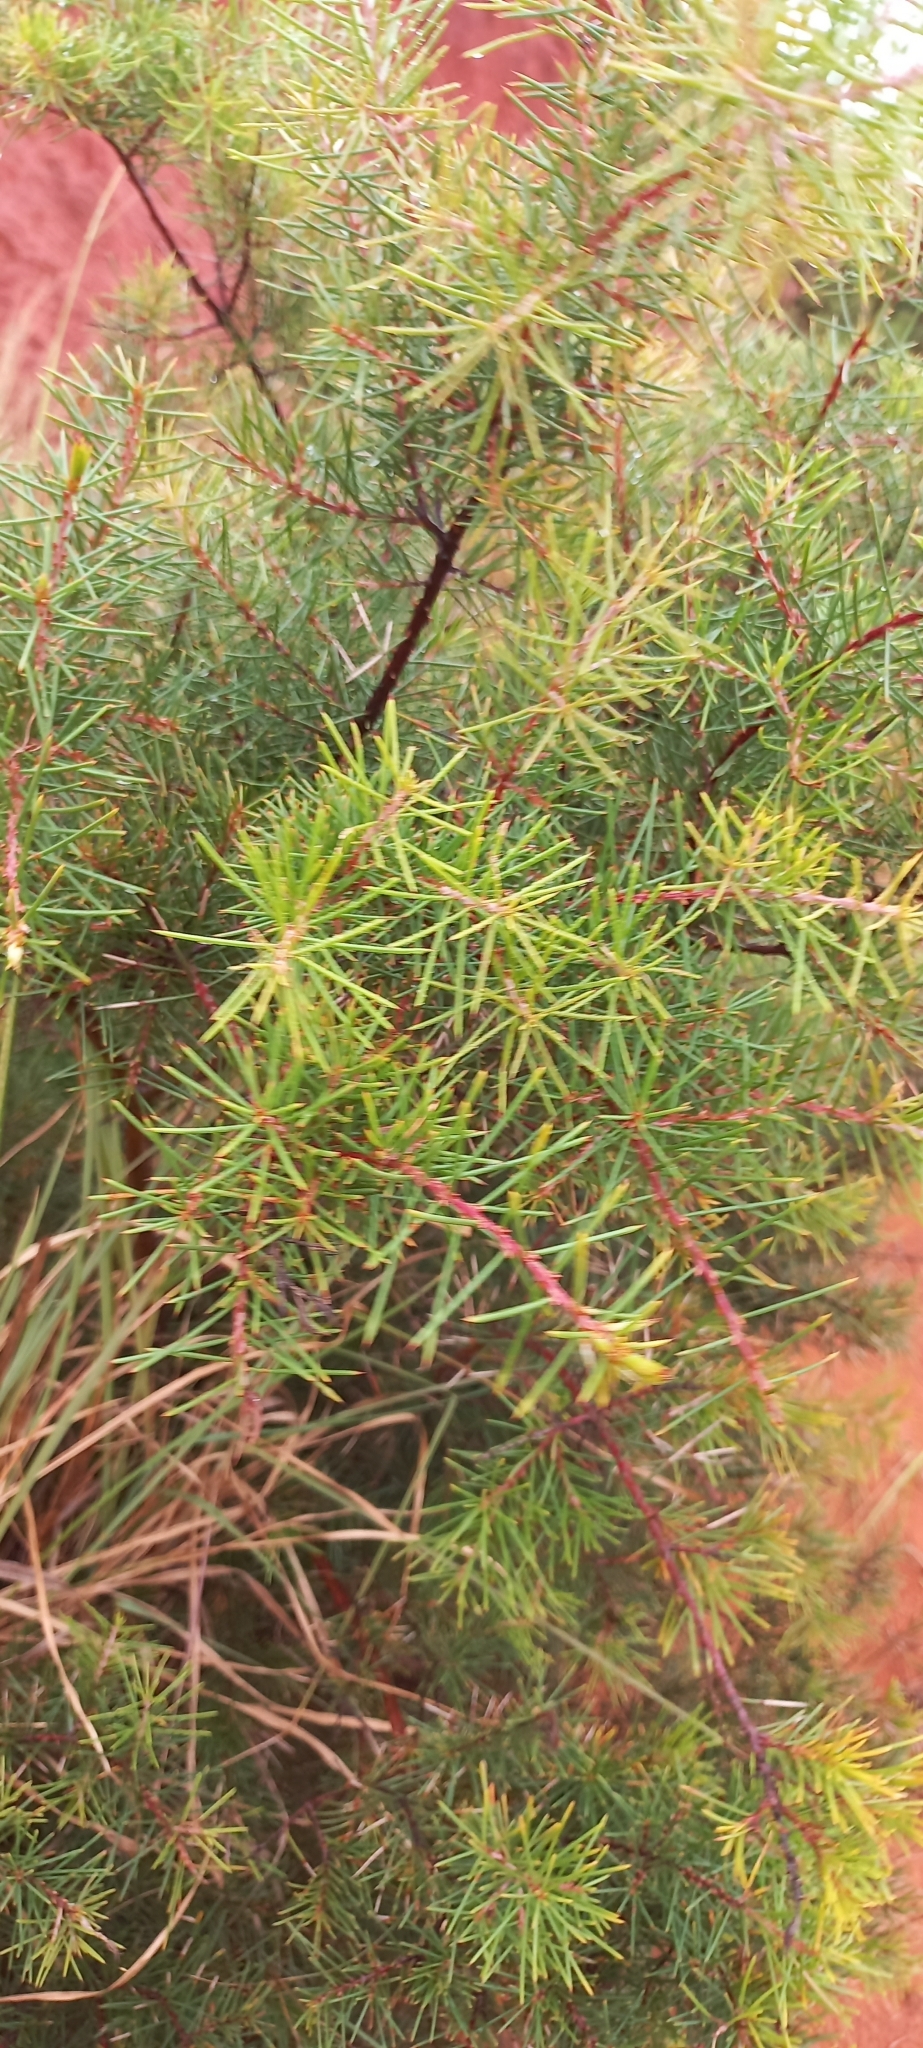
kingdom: Plantae
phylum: Tracheophyta
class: Magnoliopsida
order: Proteales
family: Proteaceae
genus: Hakea
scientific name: Hakea sericea
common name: Needle bush
